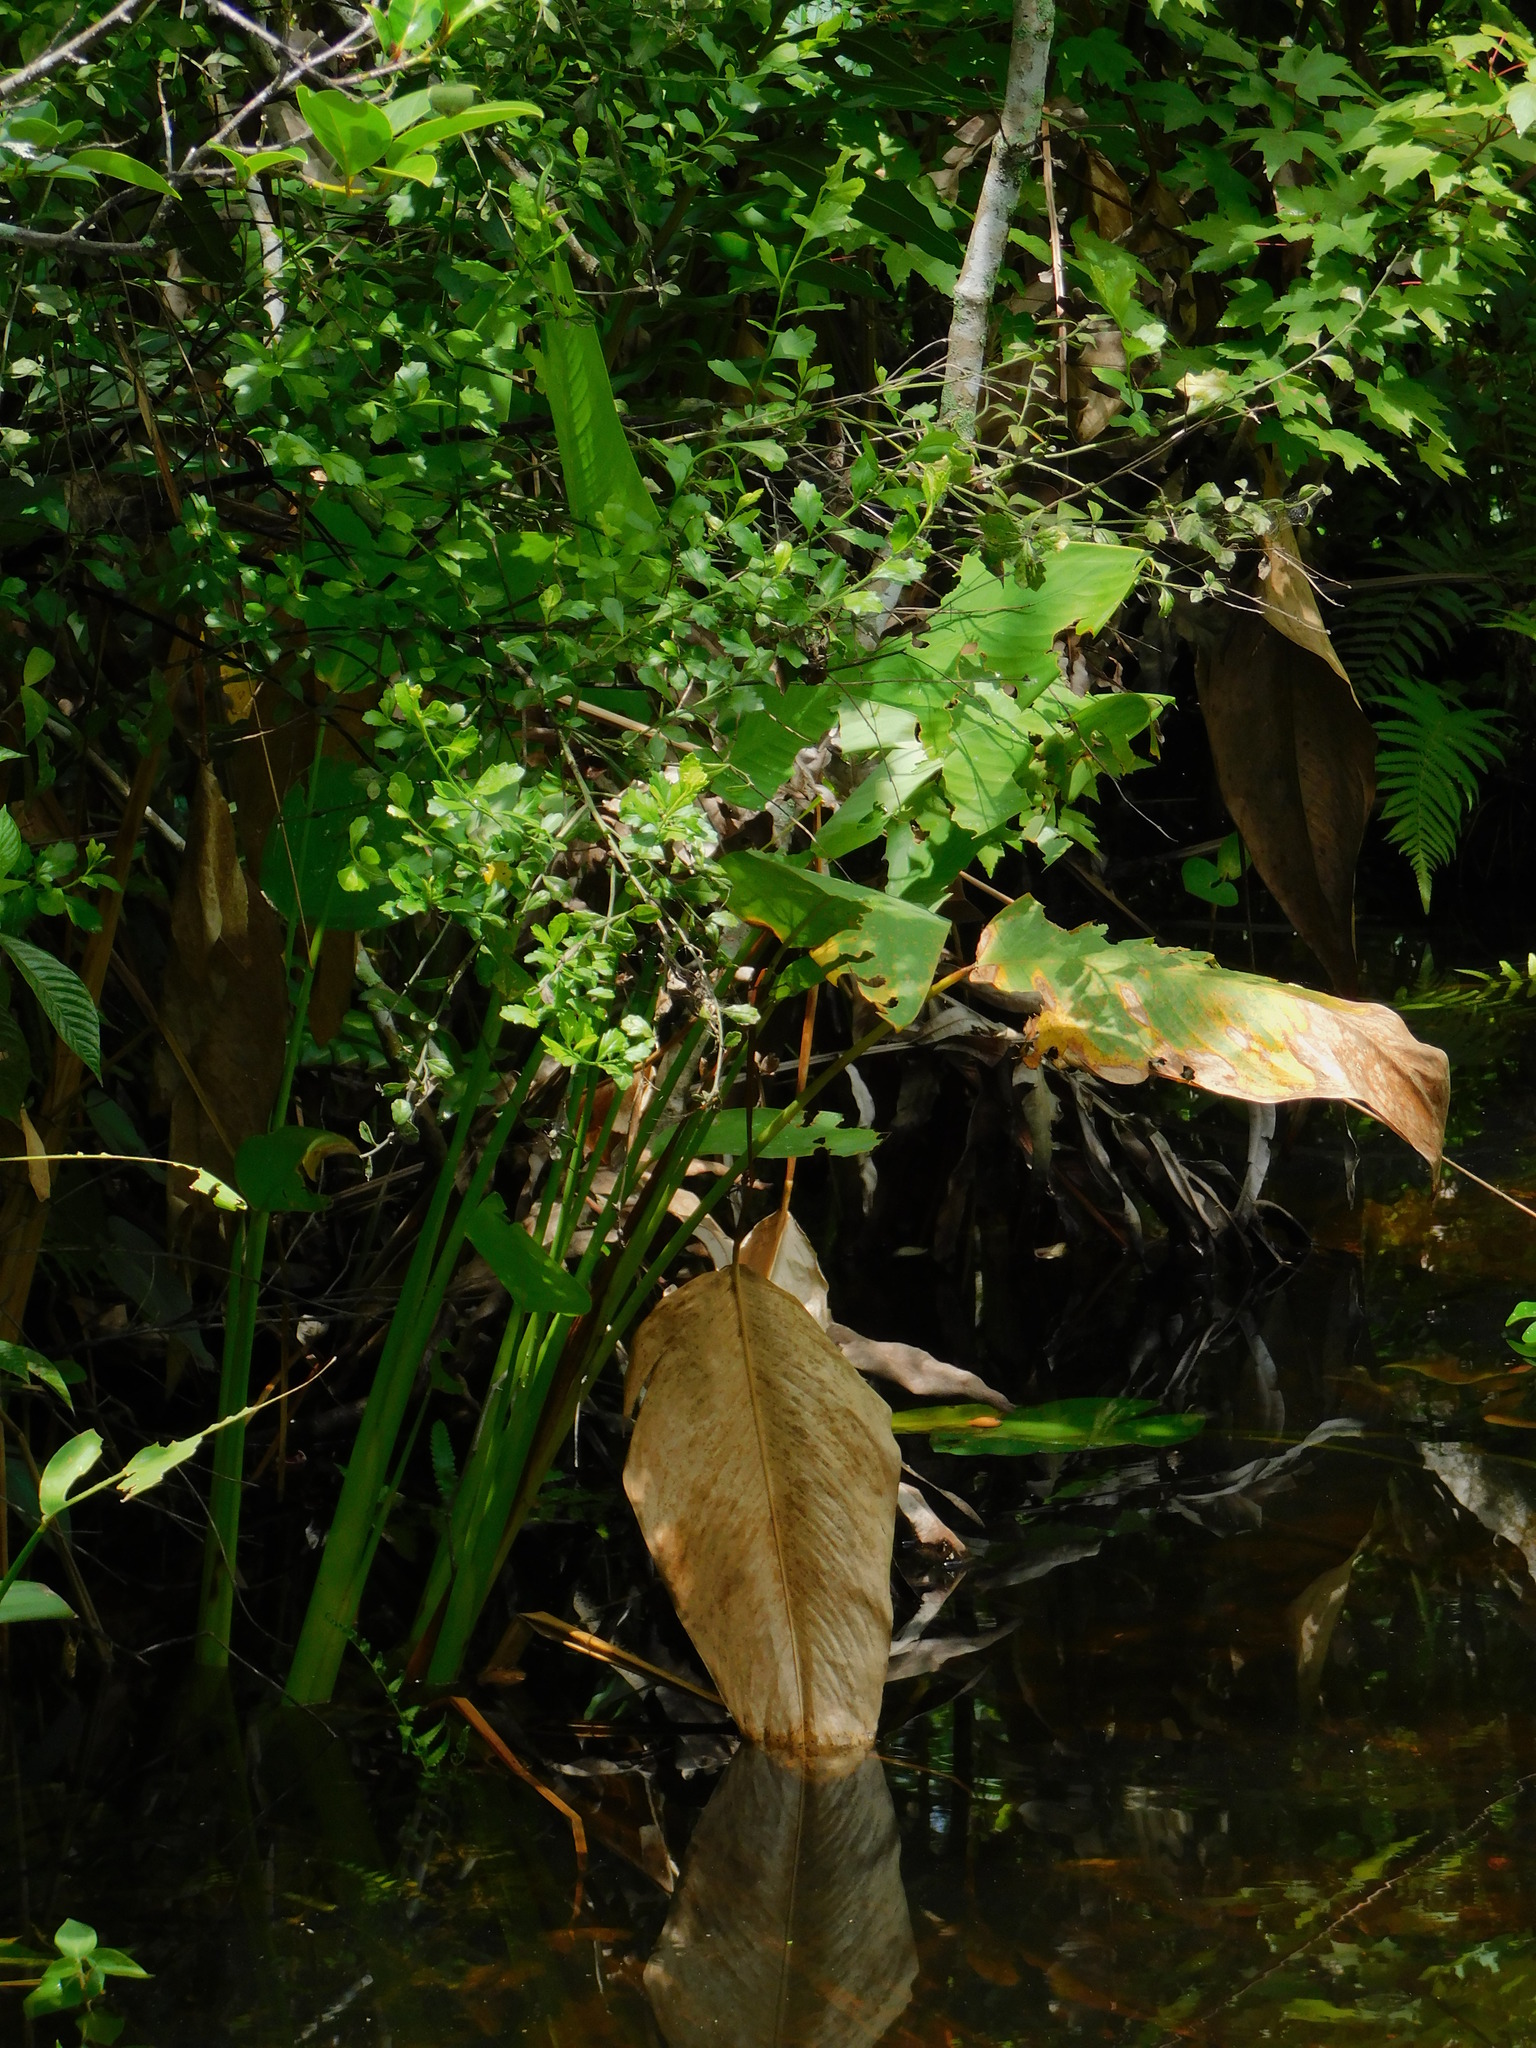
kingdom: Plantae
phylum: Tracheophyta
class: Liliopsida
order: Zingiberales
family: Marantaceae
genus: Thalia
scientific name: Thalia geniculata
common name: Arrowroot
